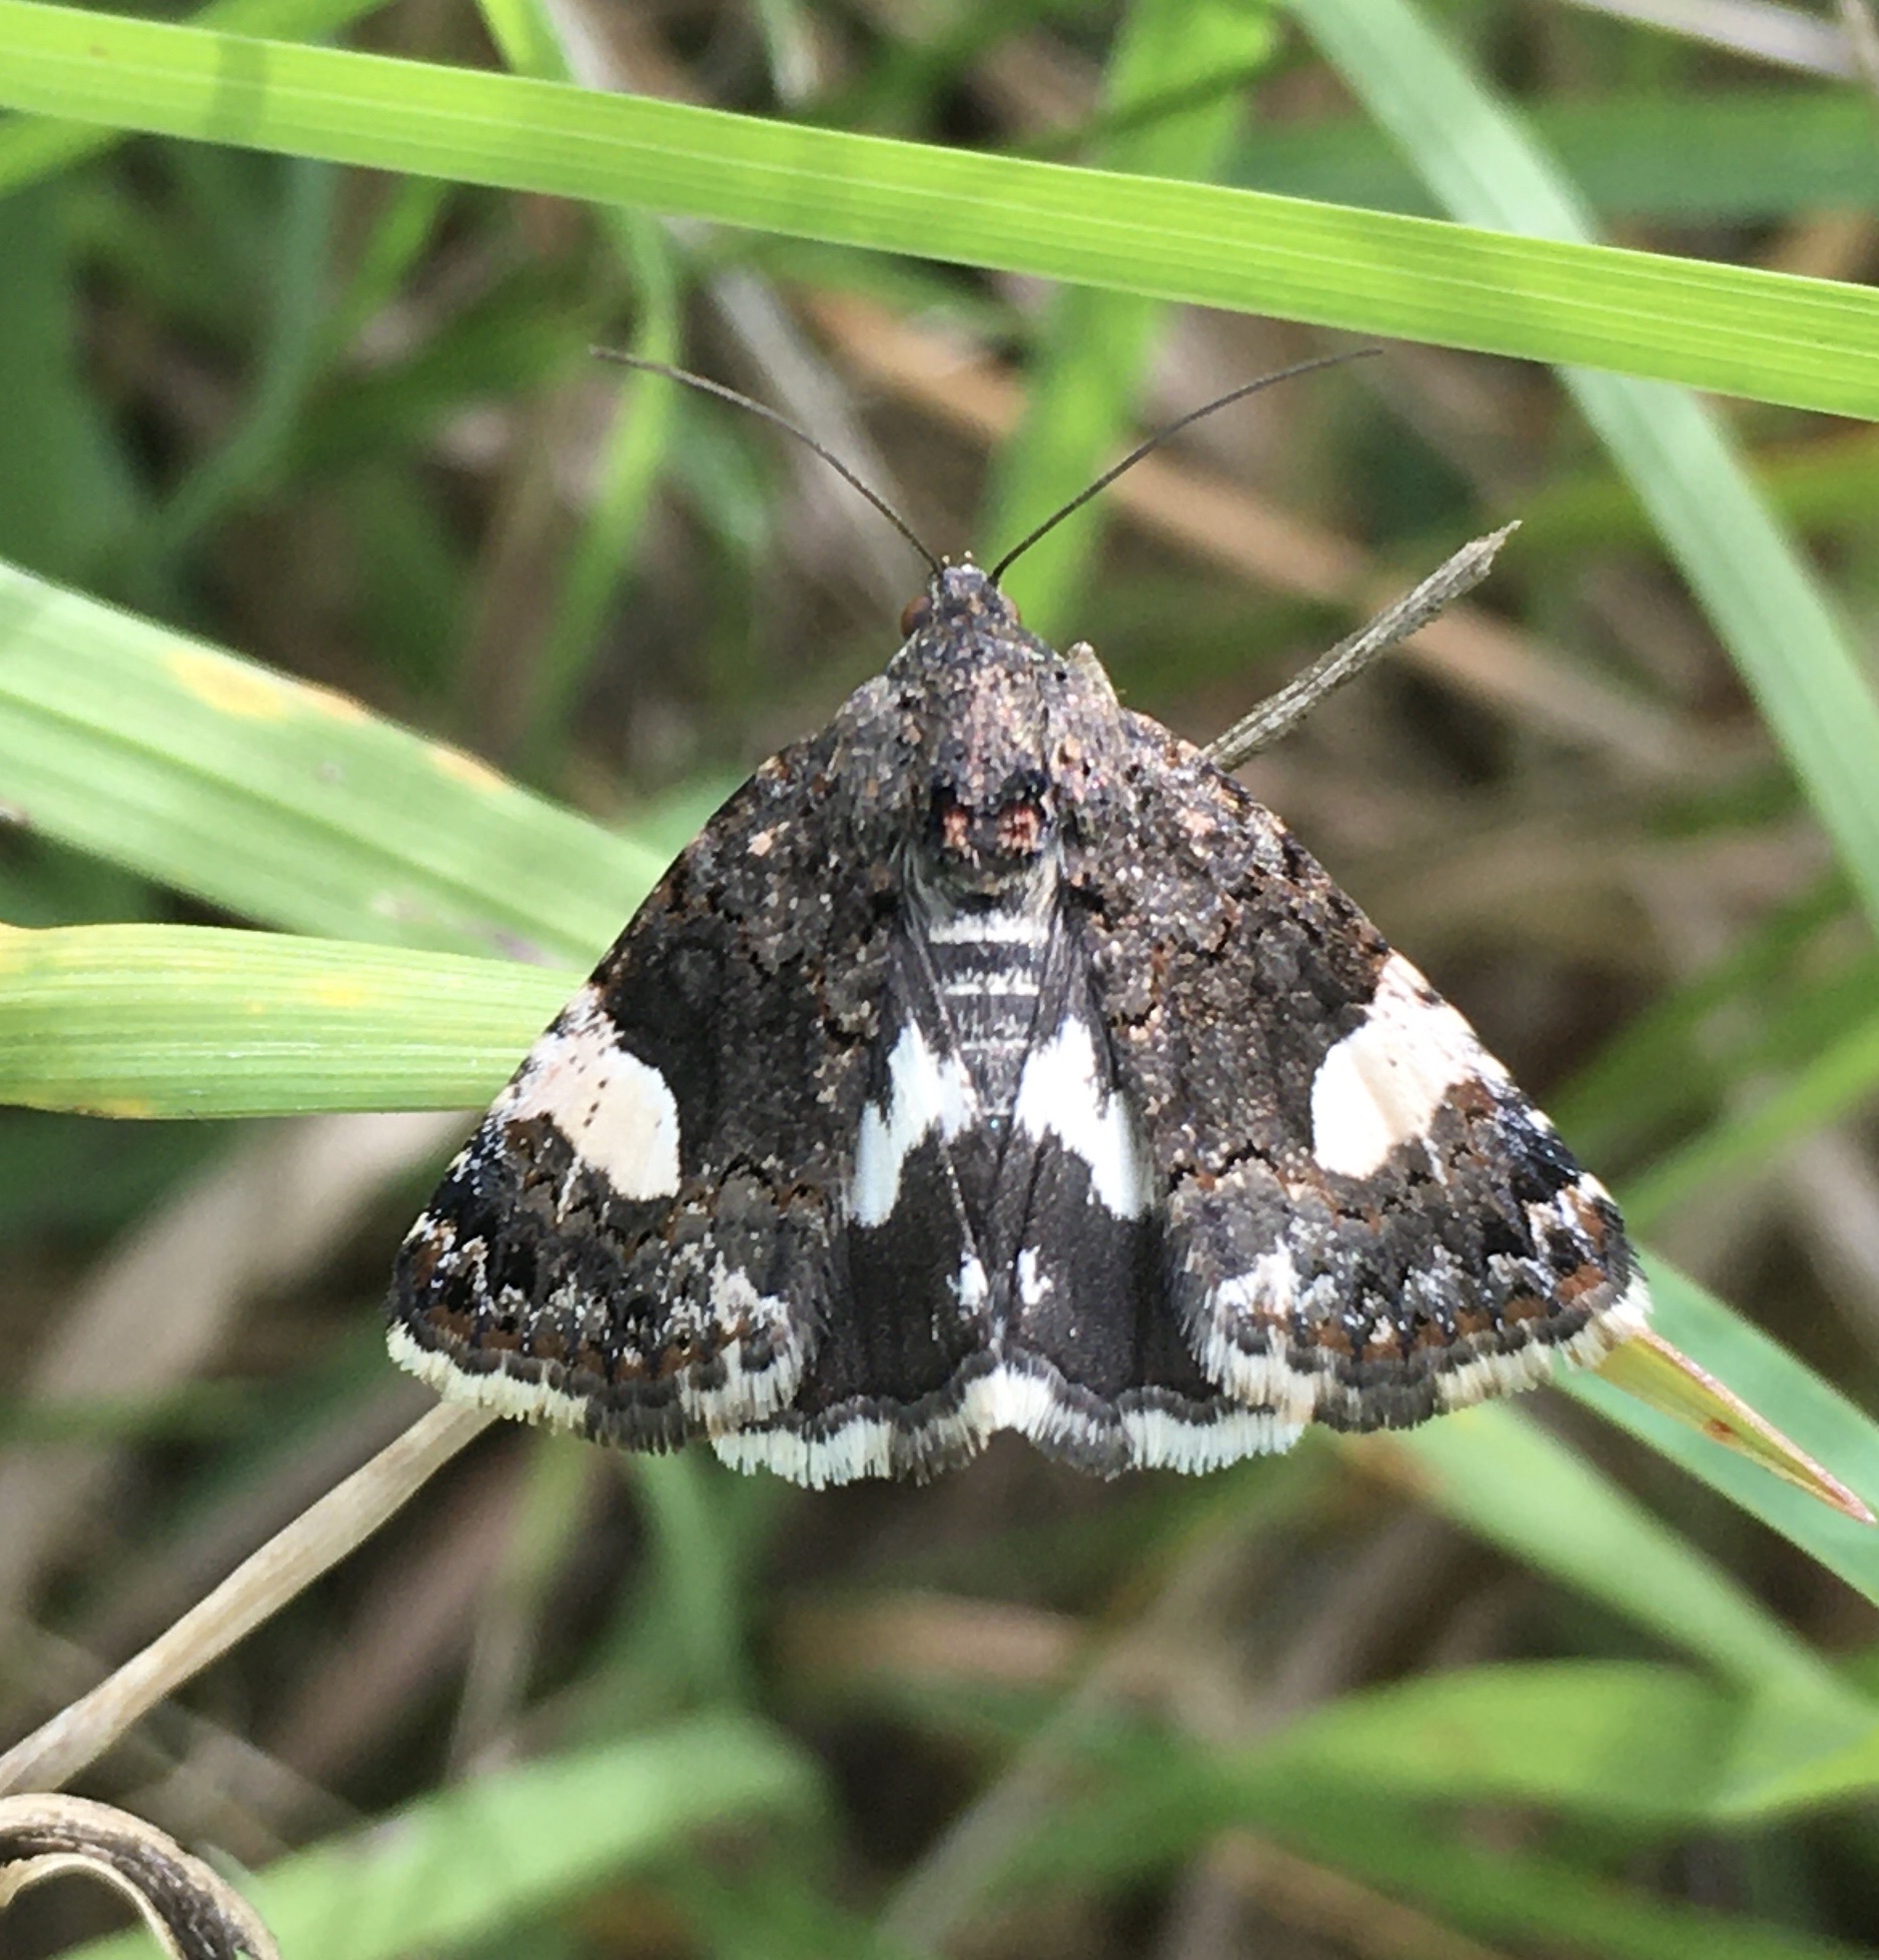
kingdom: Animalia
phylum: Arthropoda
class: Insecta
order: Lepidoptera
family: Erebidae
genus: Tyta
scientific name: Tyta luctuosa
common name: Four-spotted
